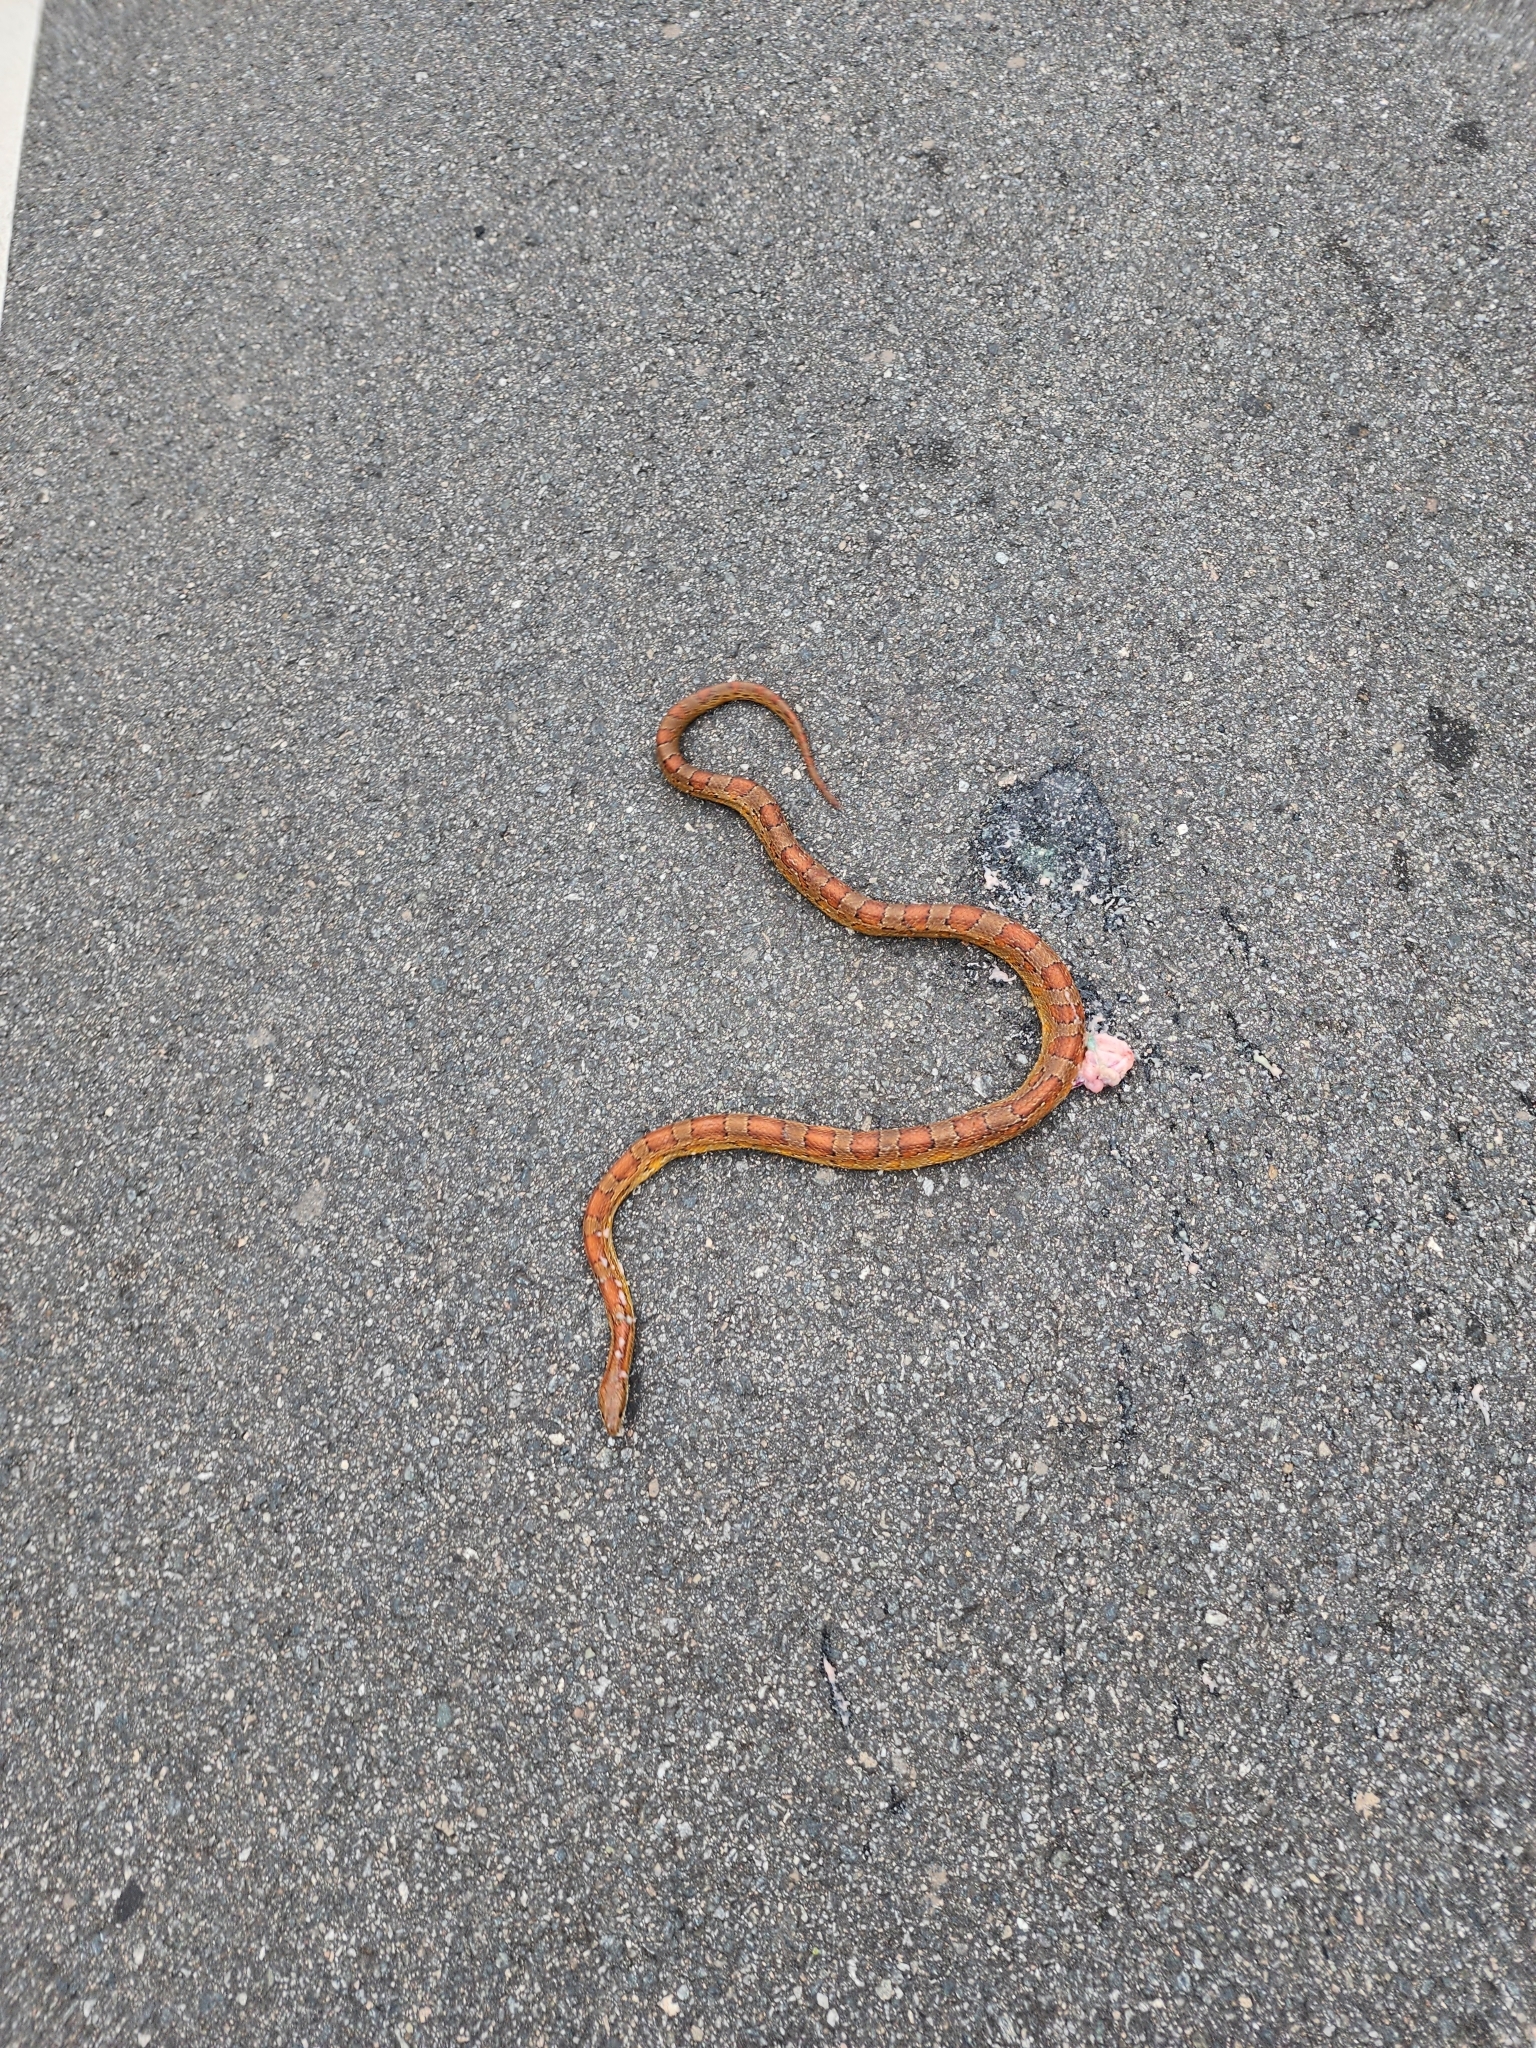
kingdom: Animalia
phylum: Chordata
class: Squamata
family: Colubridae
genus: Pantherophis
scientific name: Pantherophis guttatus
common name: Red cornsnake
